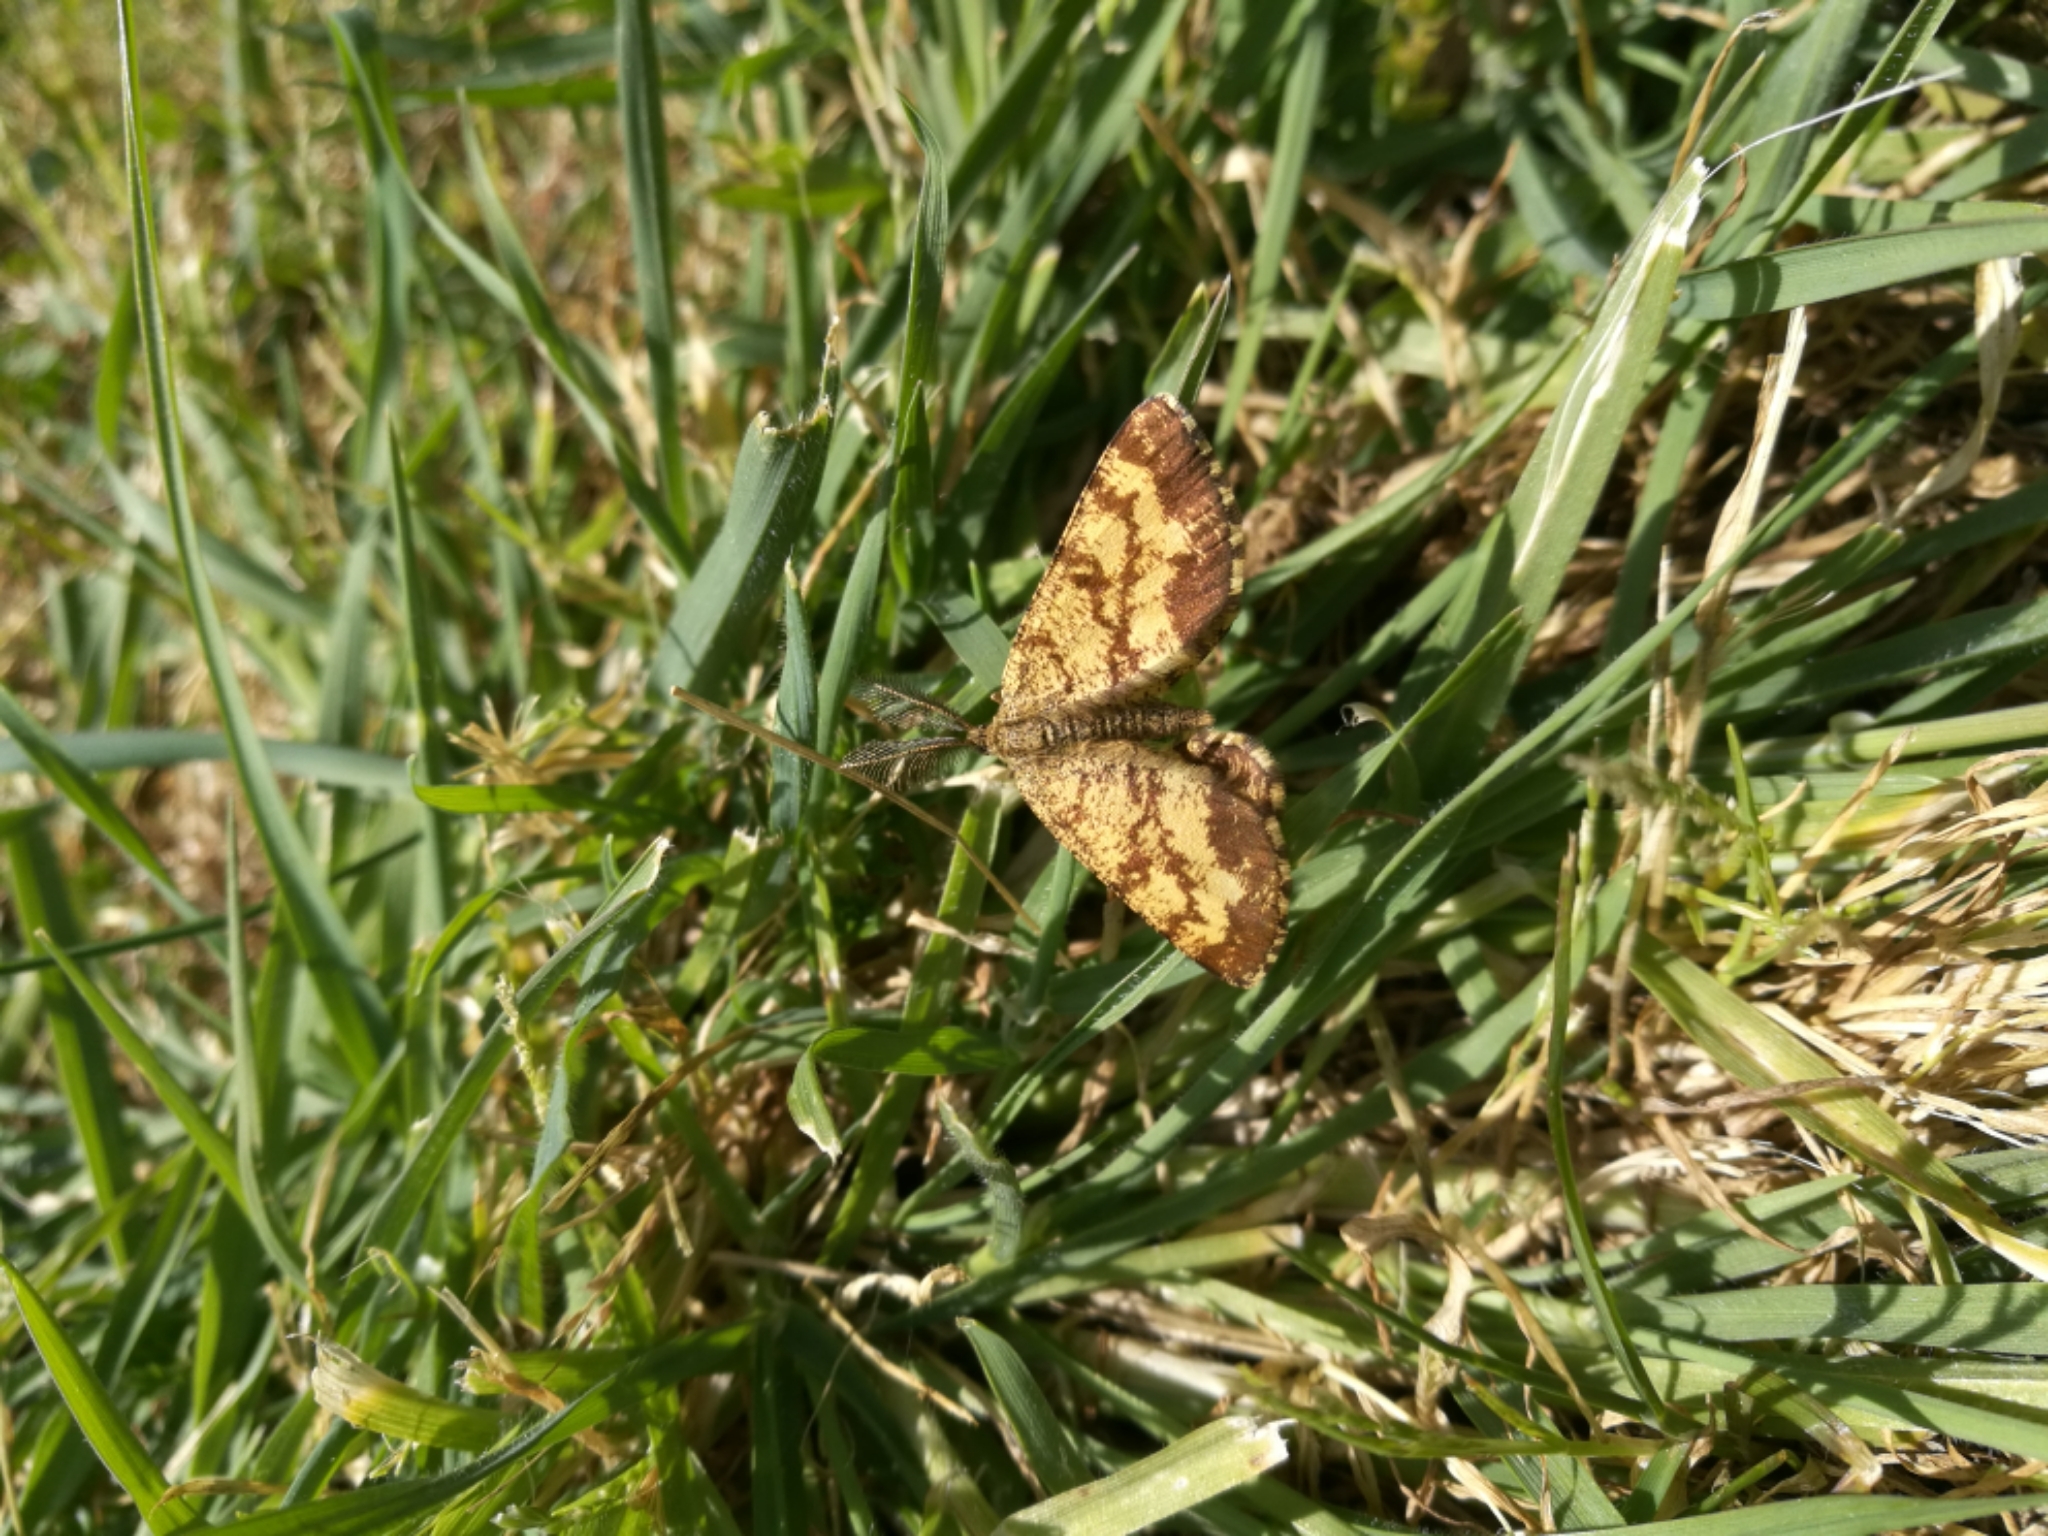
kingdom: Animalia
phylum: Arthropoda
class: Insecta
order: Lepidoptera
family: Geometridae
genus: Ematurga
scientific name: Ematurga atomaria
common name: Common heath
